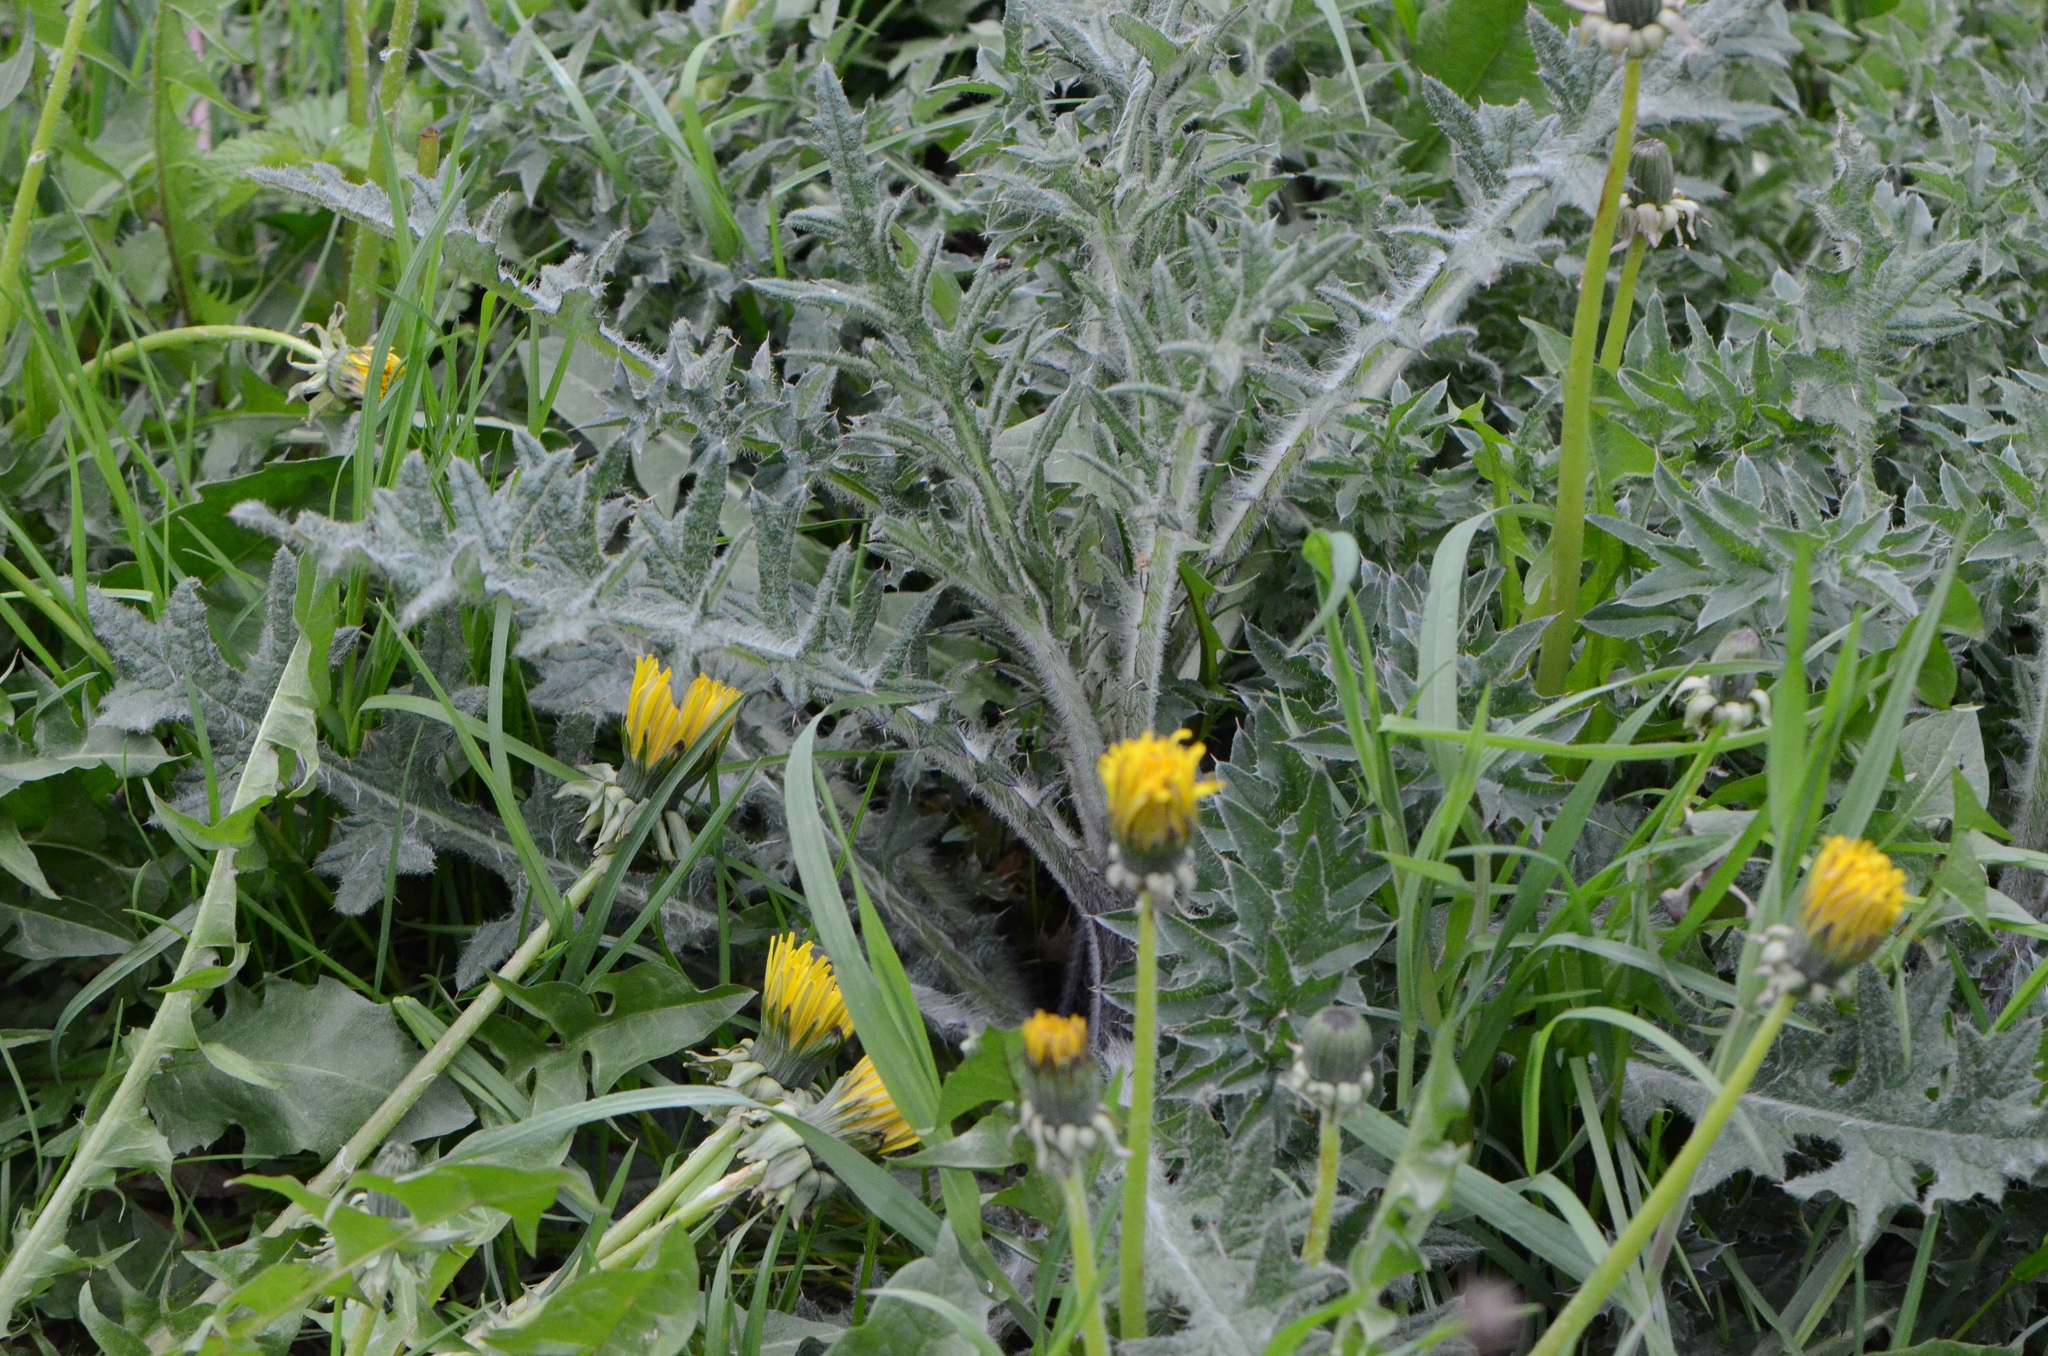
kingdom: Plantae
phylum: Tracheophyta
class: Magnoliopsida
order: Asterales
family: Asteraceae
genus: Taraxacum
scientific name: Taraxacum officinale
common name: Common dandelion
